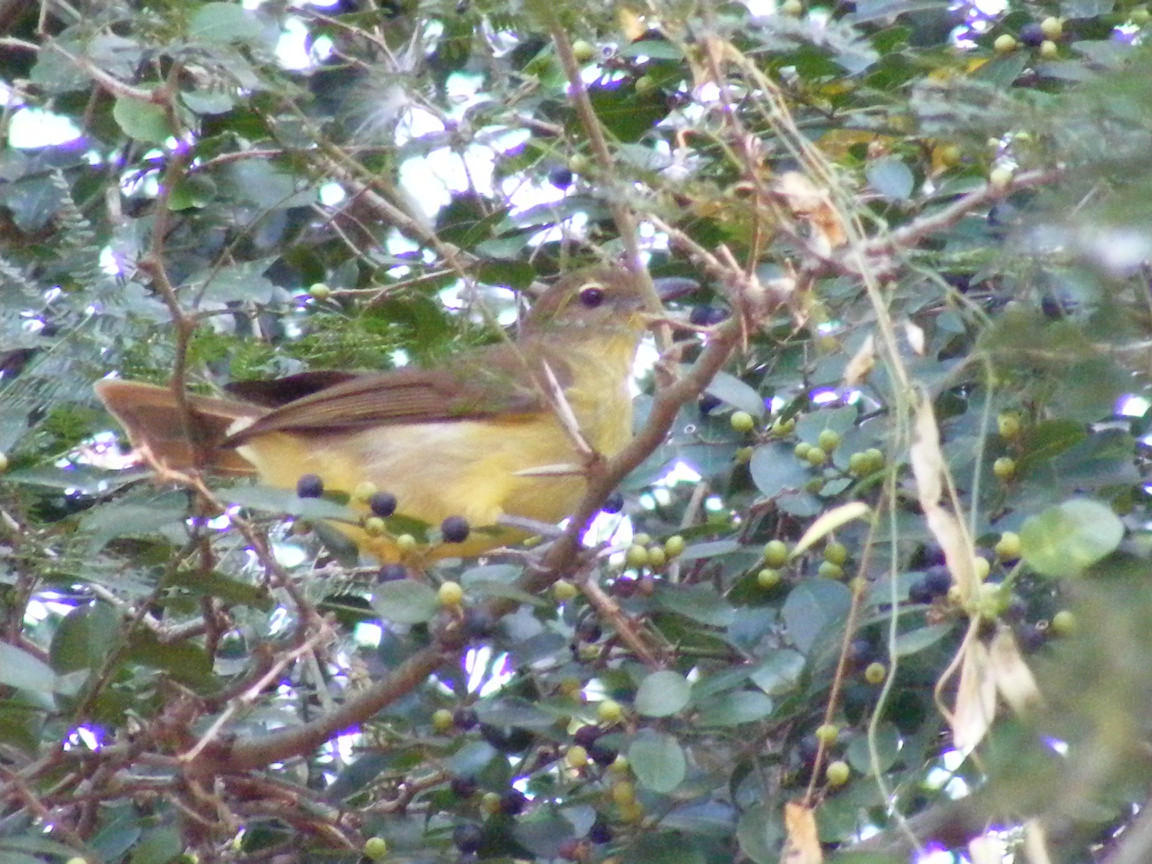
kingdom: Animalia
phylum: Chordata
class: Aves
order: Passeriformes
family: Pycnonotidae
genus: Chlorocichla
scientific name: Chlorocichla flaviventris
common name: Yellow-bellied greenbul
